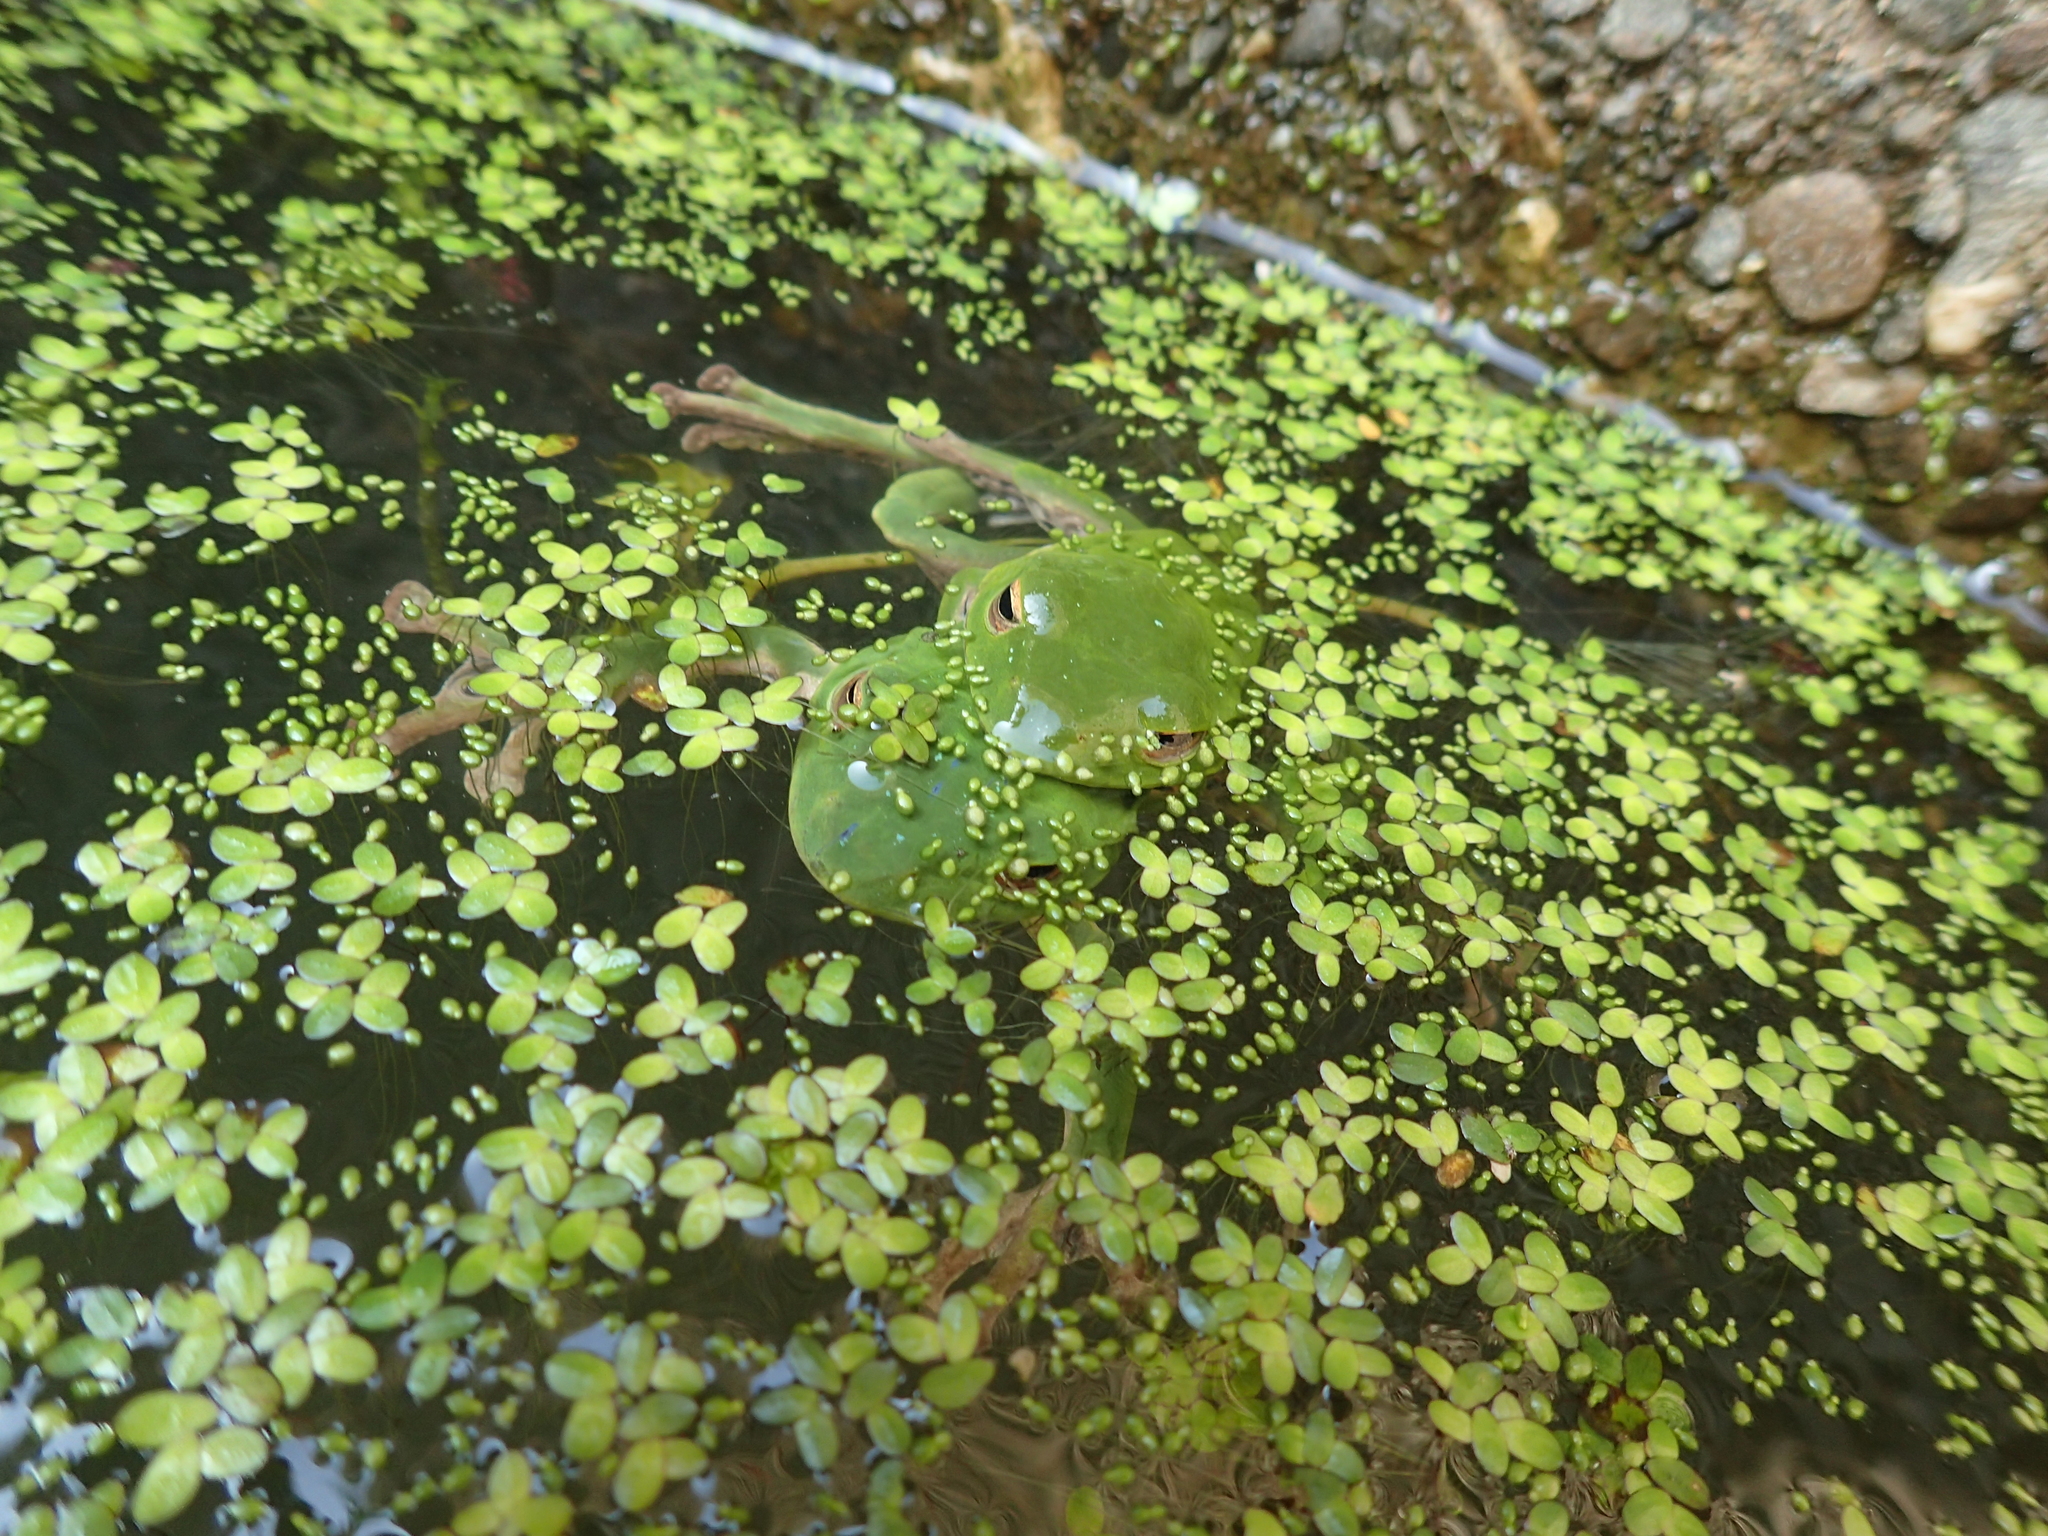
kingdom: Animalia
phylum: Chordata
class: Amphibia
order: Anura
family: Rhacophoridae
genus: Zhangixalus
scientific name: Zhangixalus moltrechti
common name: Moltrecht's treefrog
